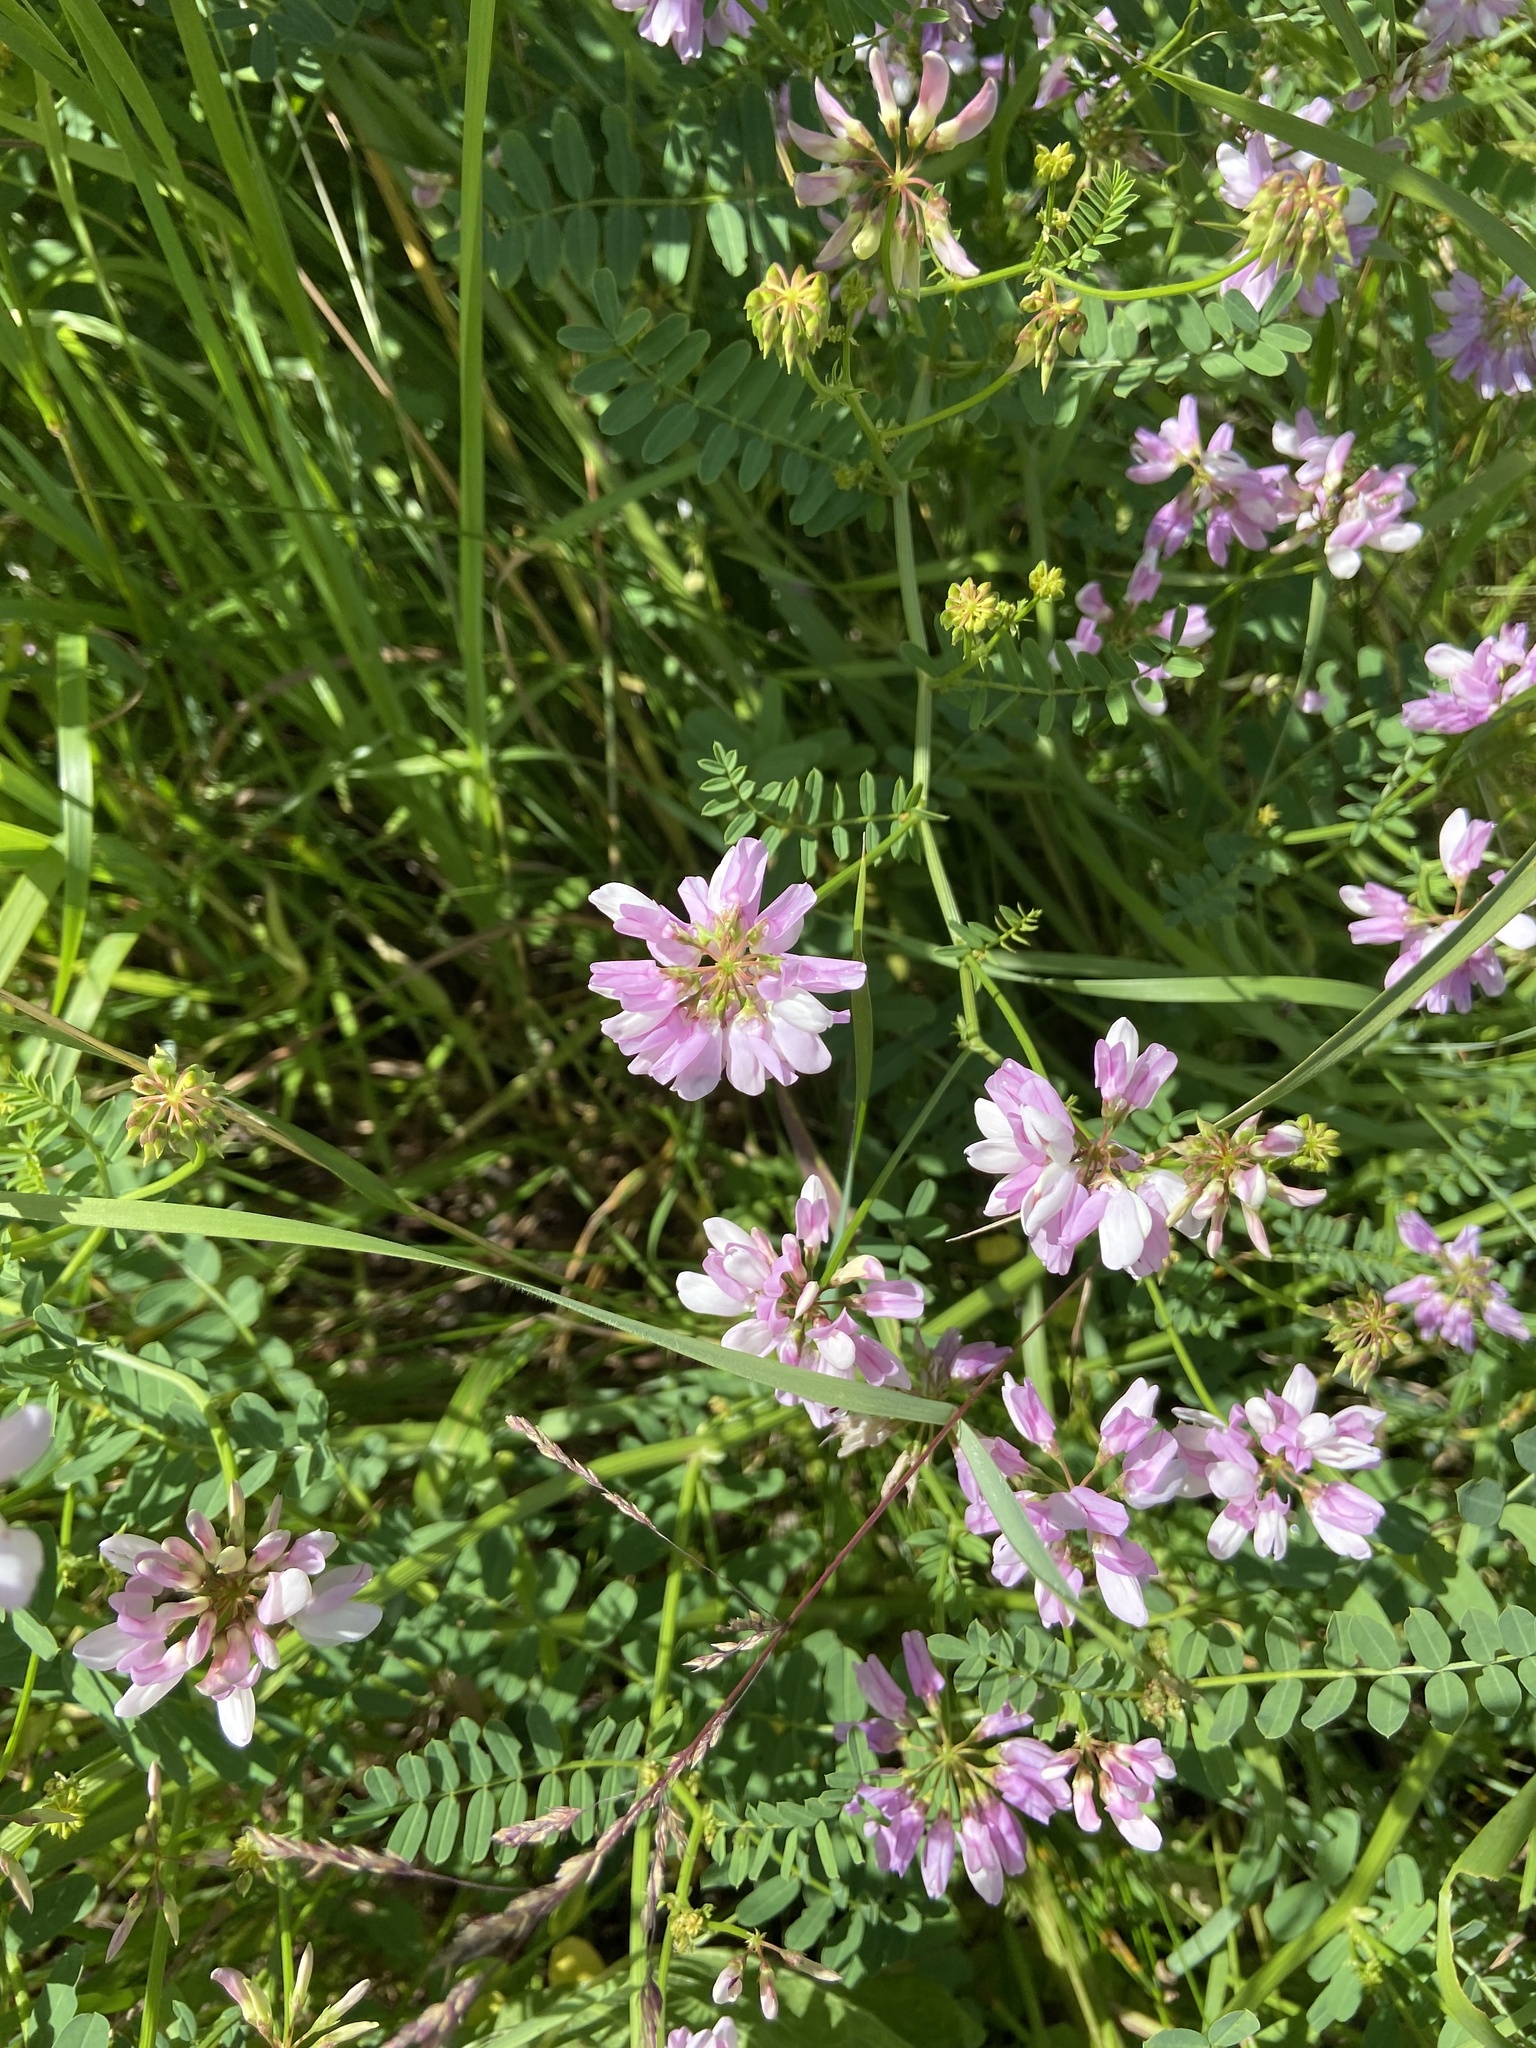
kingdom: Plantae
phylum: Tracheophyta
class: Magnoliopsida
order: Fabales
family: Fabaceae
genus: Coronilla
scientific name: Coronilla varia
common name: Crownvetch
